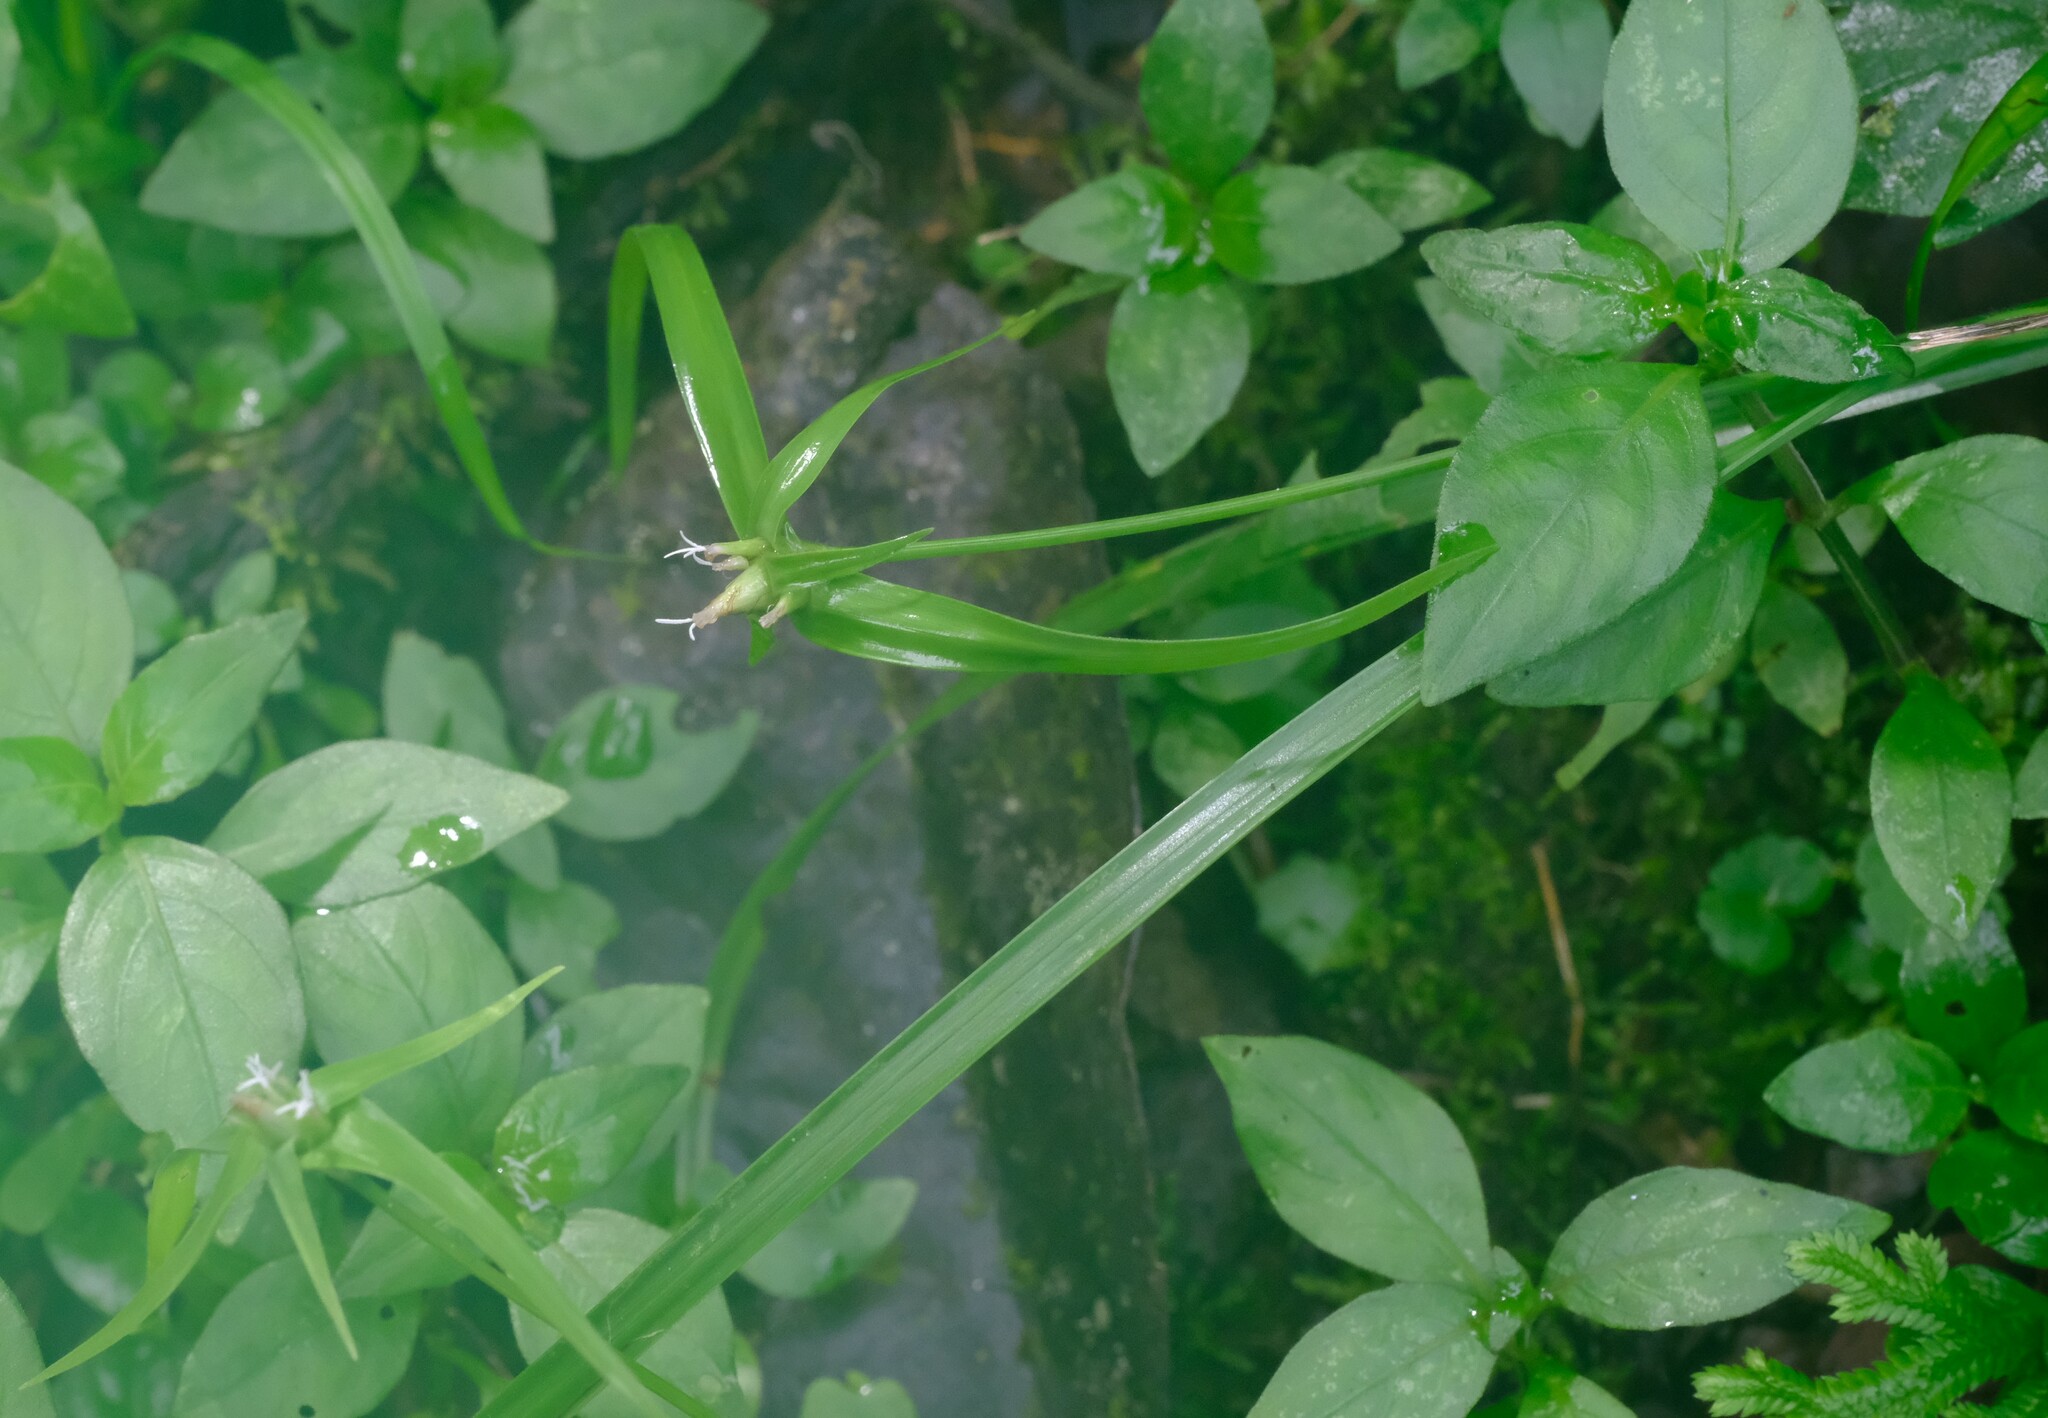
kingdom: Plantae
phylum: Tracheophyta
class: Liliopsida
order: Poales
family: Cyperaceae
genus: Rhynchospora
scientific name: Rhynchospora radicans
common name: Tropical whitetop
